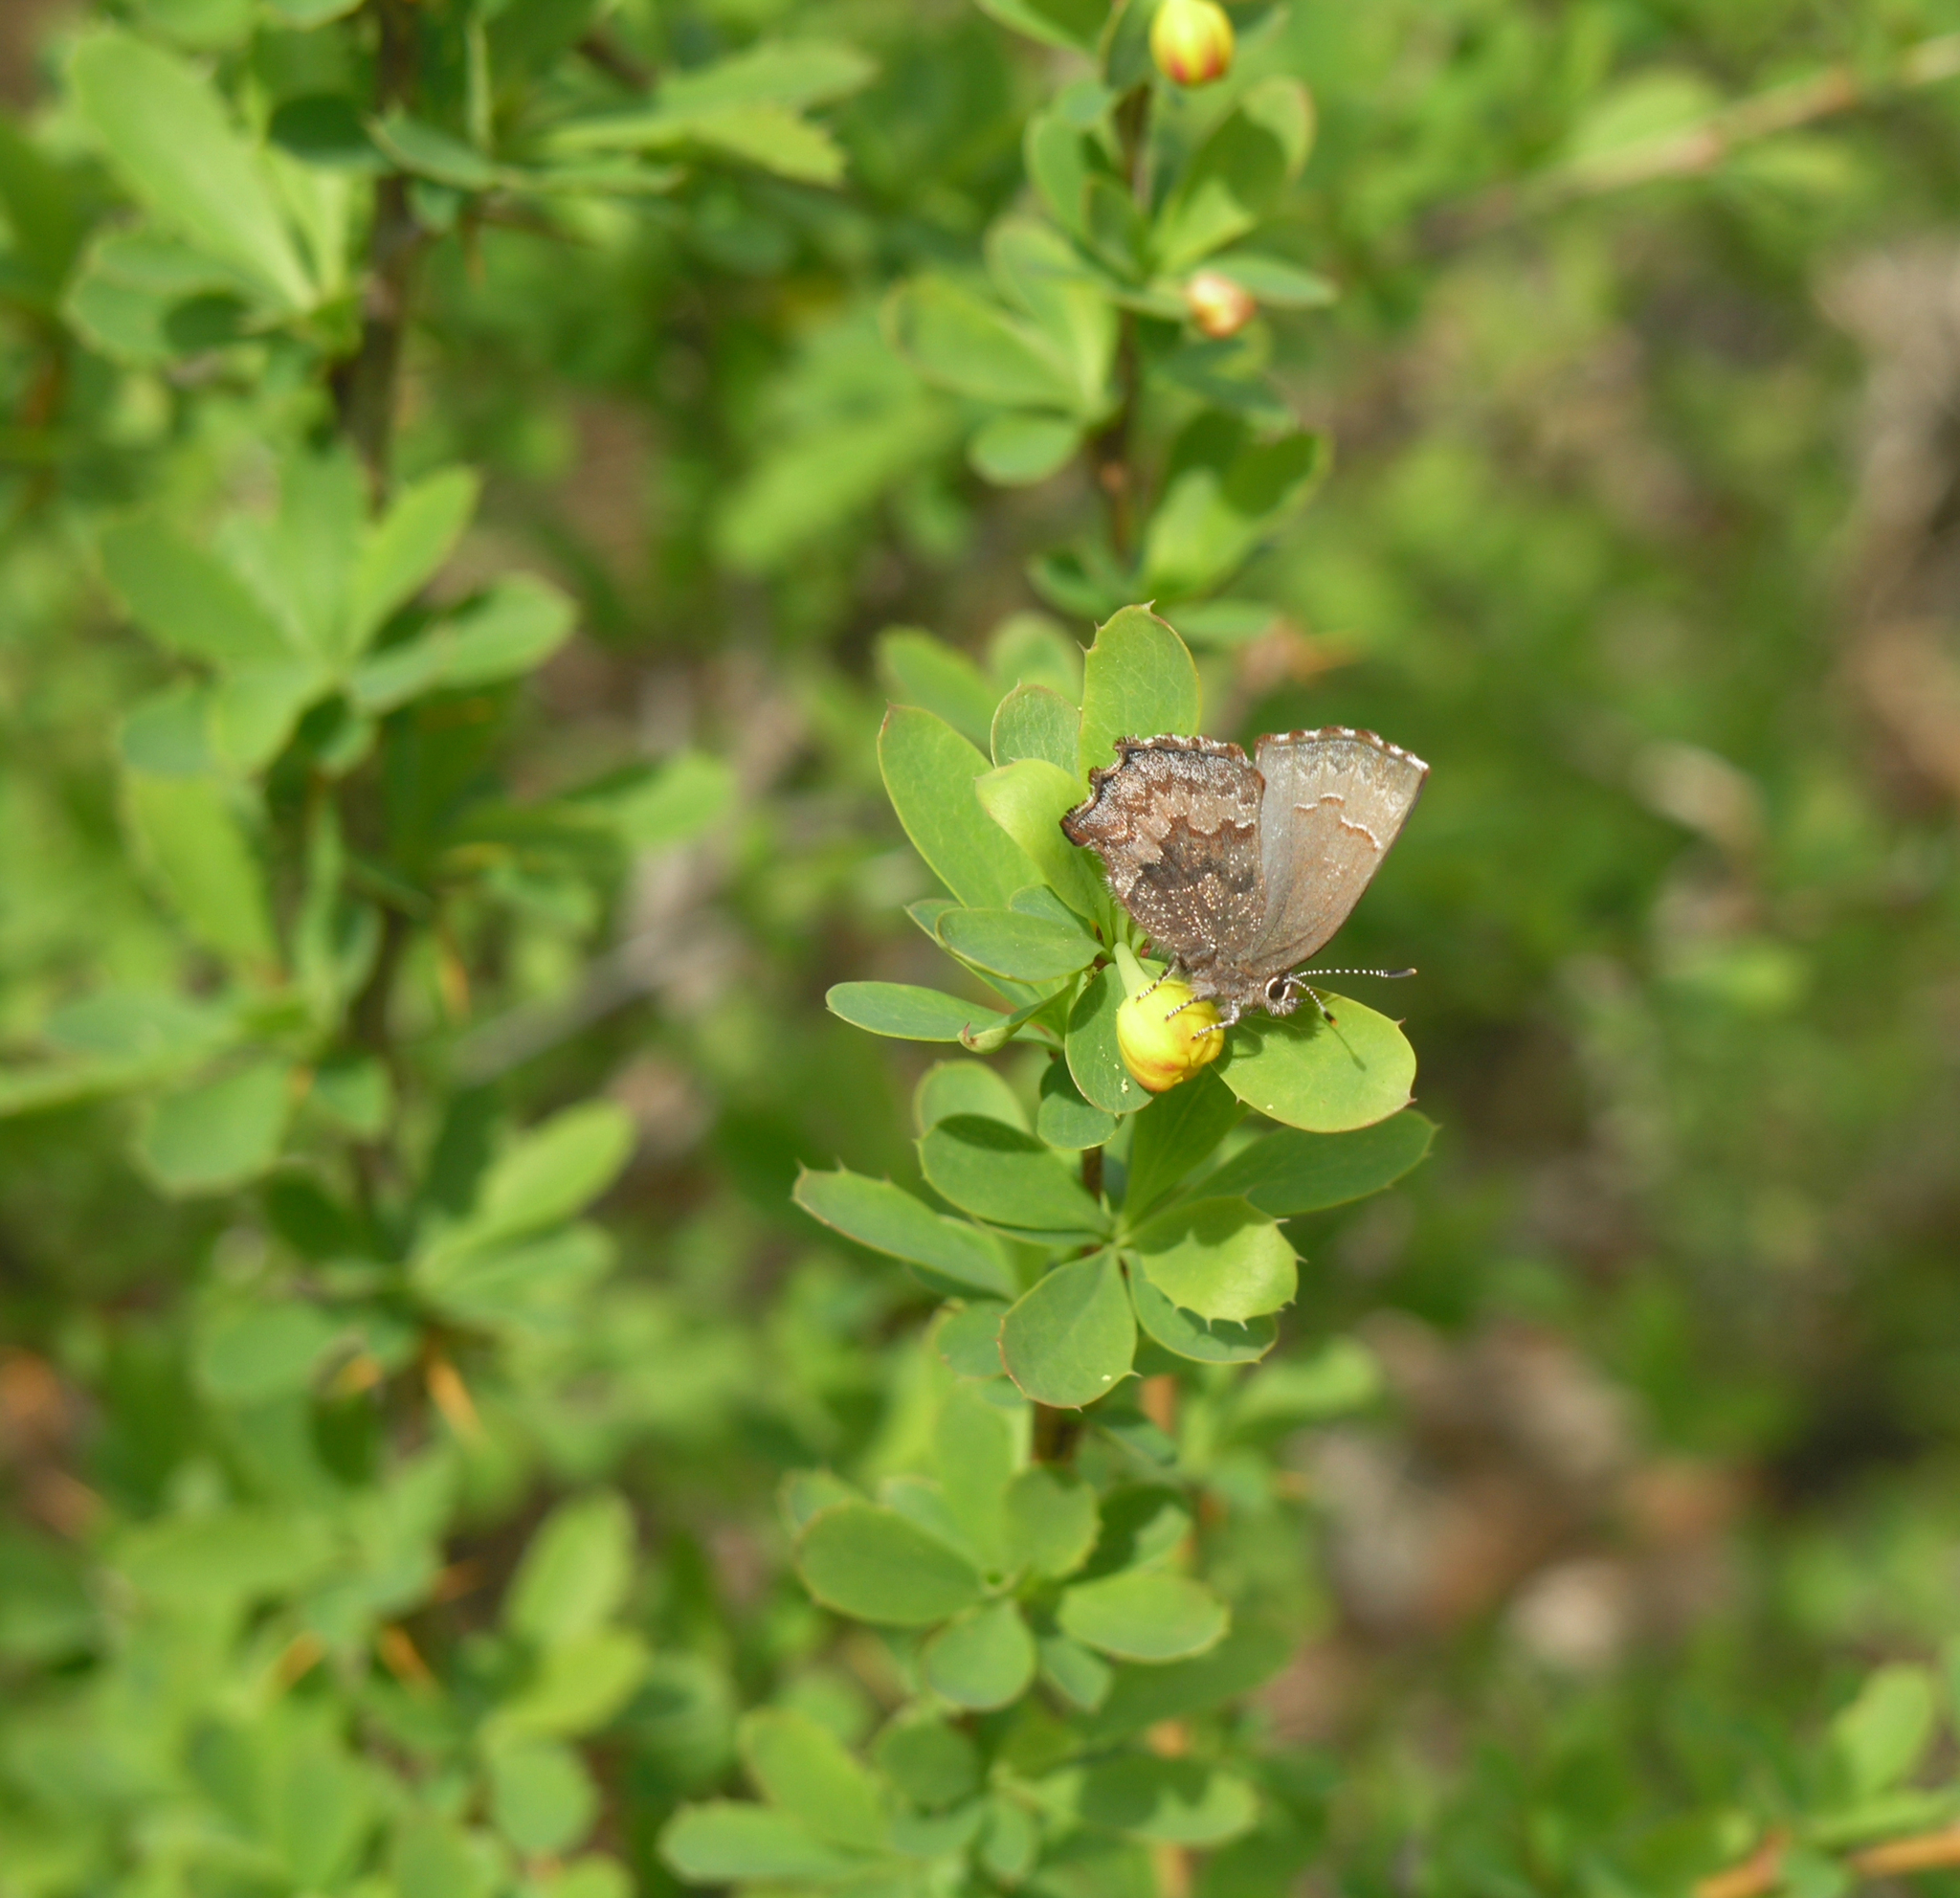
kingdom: Animalia
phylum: Arthropoda
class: Insecta
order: Lepidoptera
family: Lycaenidae
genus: Ginzia
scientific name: Ginzia Ahlbergia frivaldszkyi
